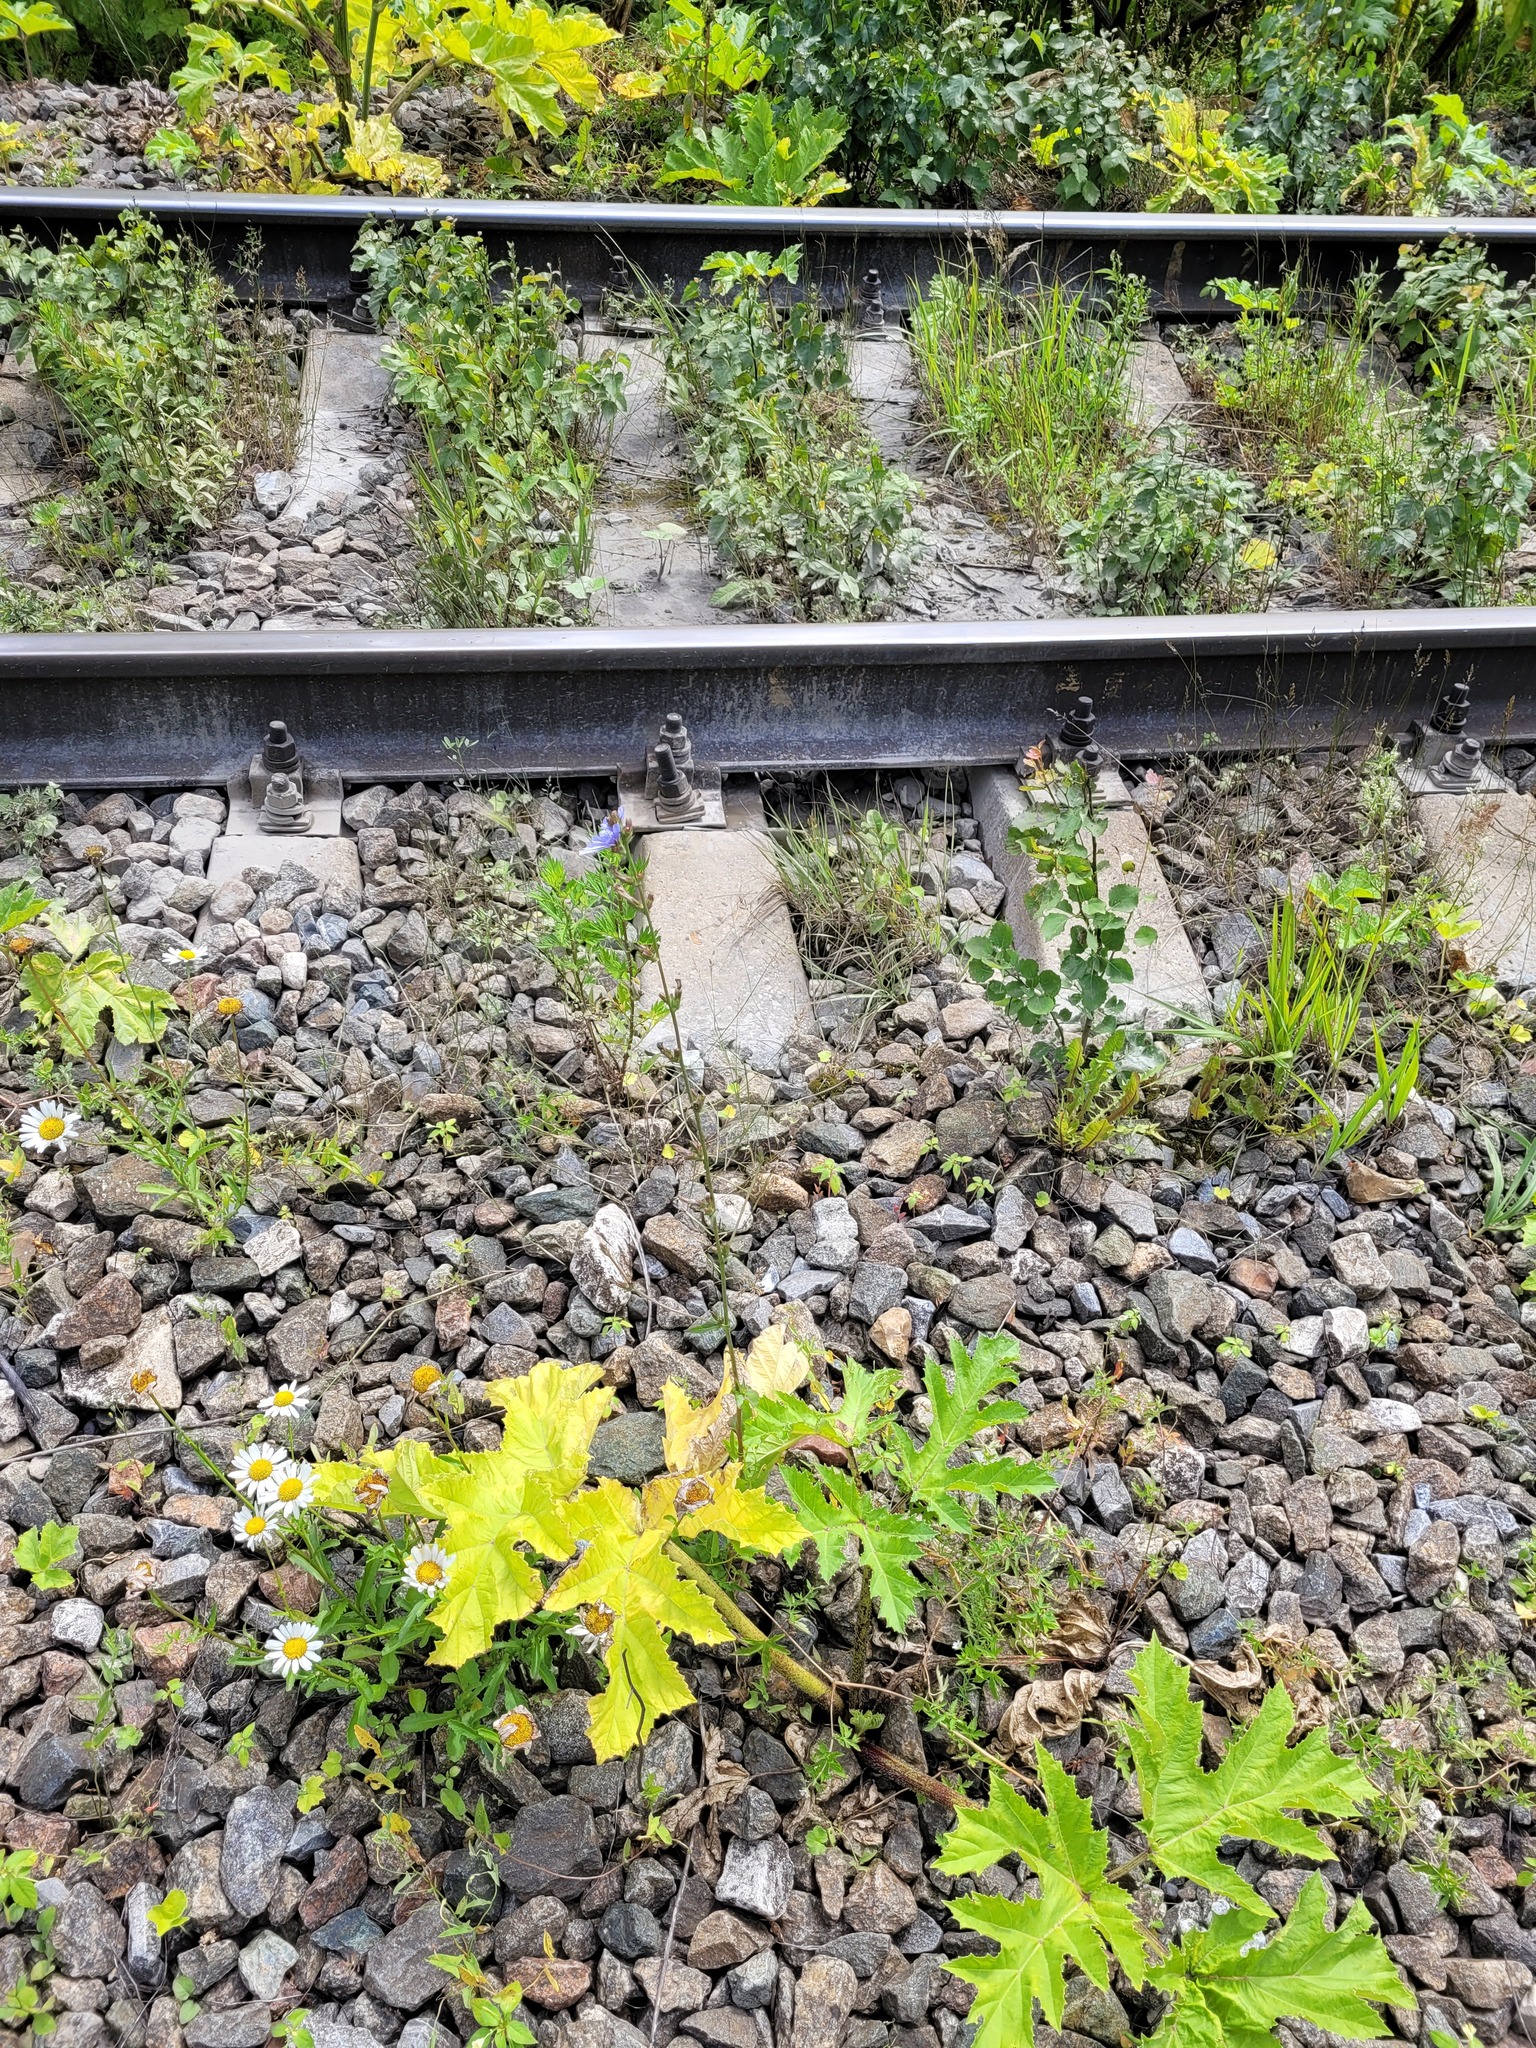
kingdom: Plantae
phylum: Tracheophyta
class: Magnoliopsida
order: Asterales
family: Asteraceae
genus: Cichorium
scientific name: Cichorium intybus
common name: Chicory
